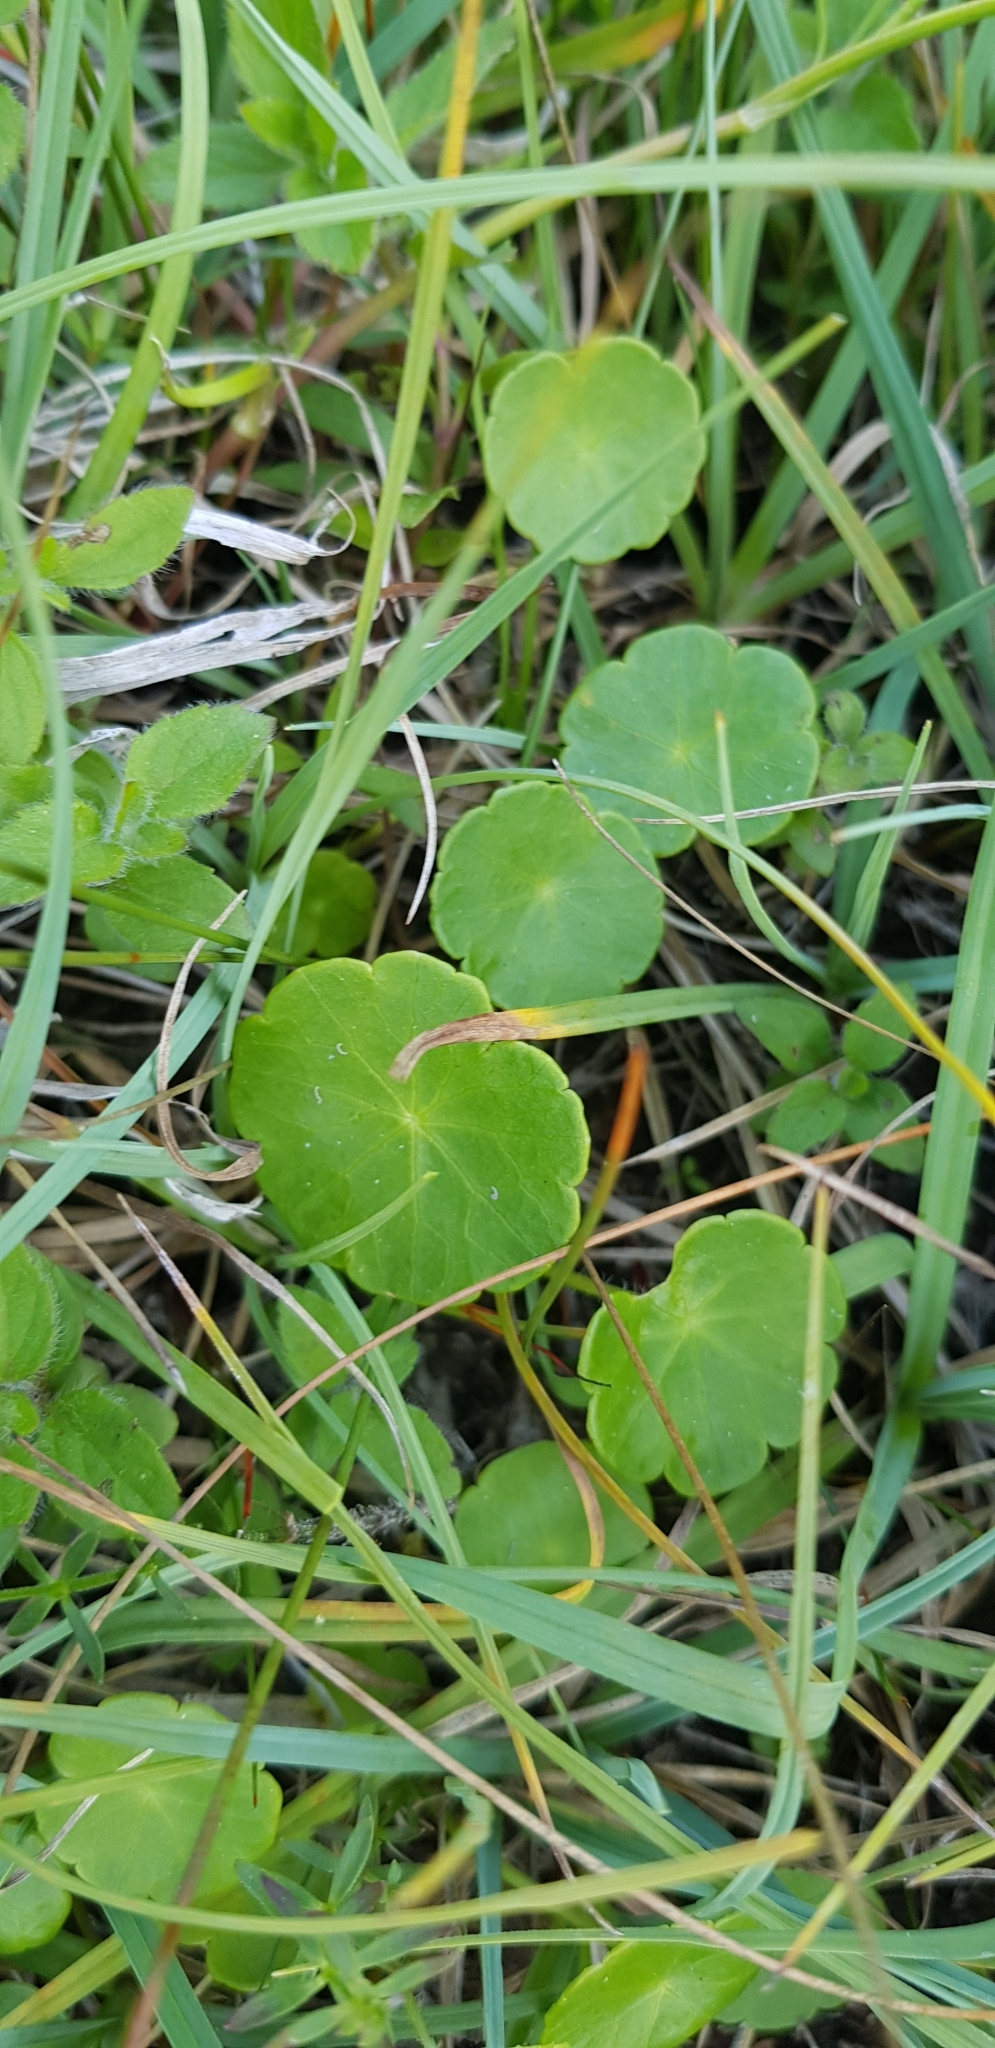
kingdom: Plantae
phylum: Tracheophyta
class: Magnoliopsida
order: Apiales
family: Araliaceae
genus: Hydrocotyle
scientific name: Hydrocotyle vulgaris
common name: Marsh pennywort
